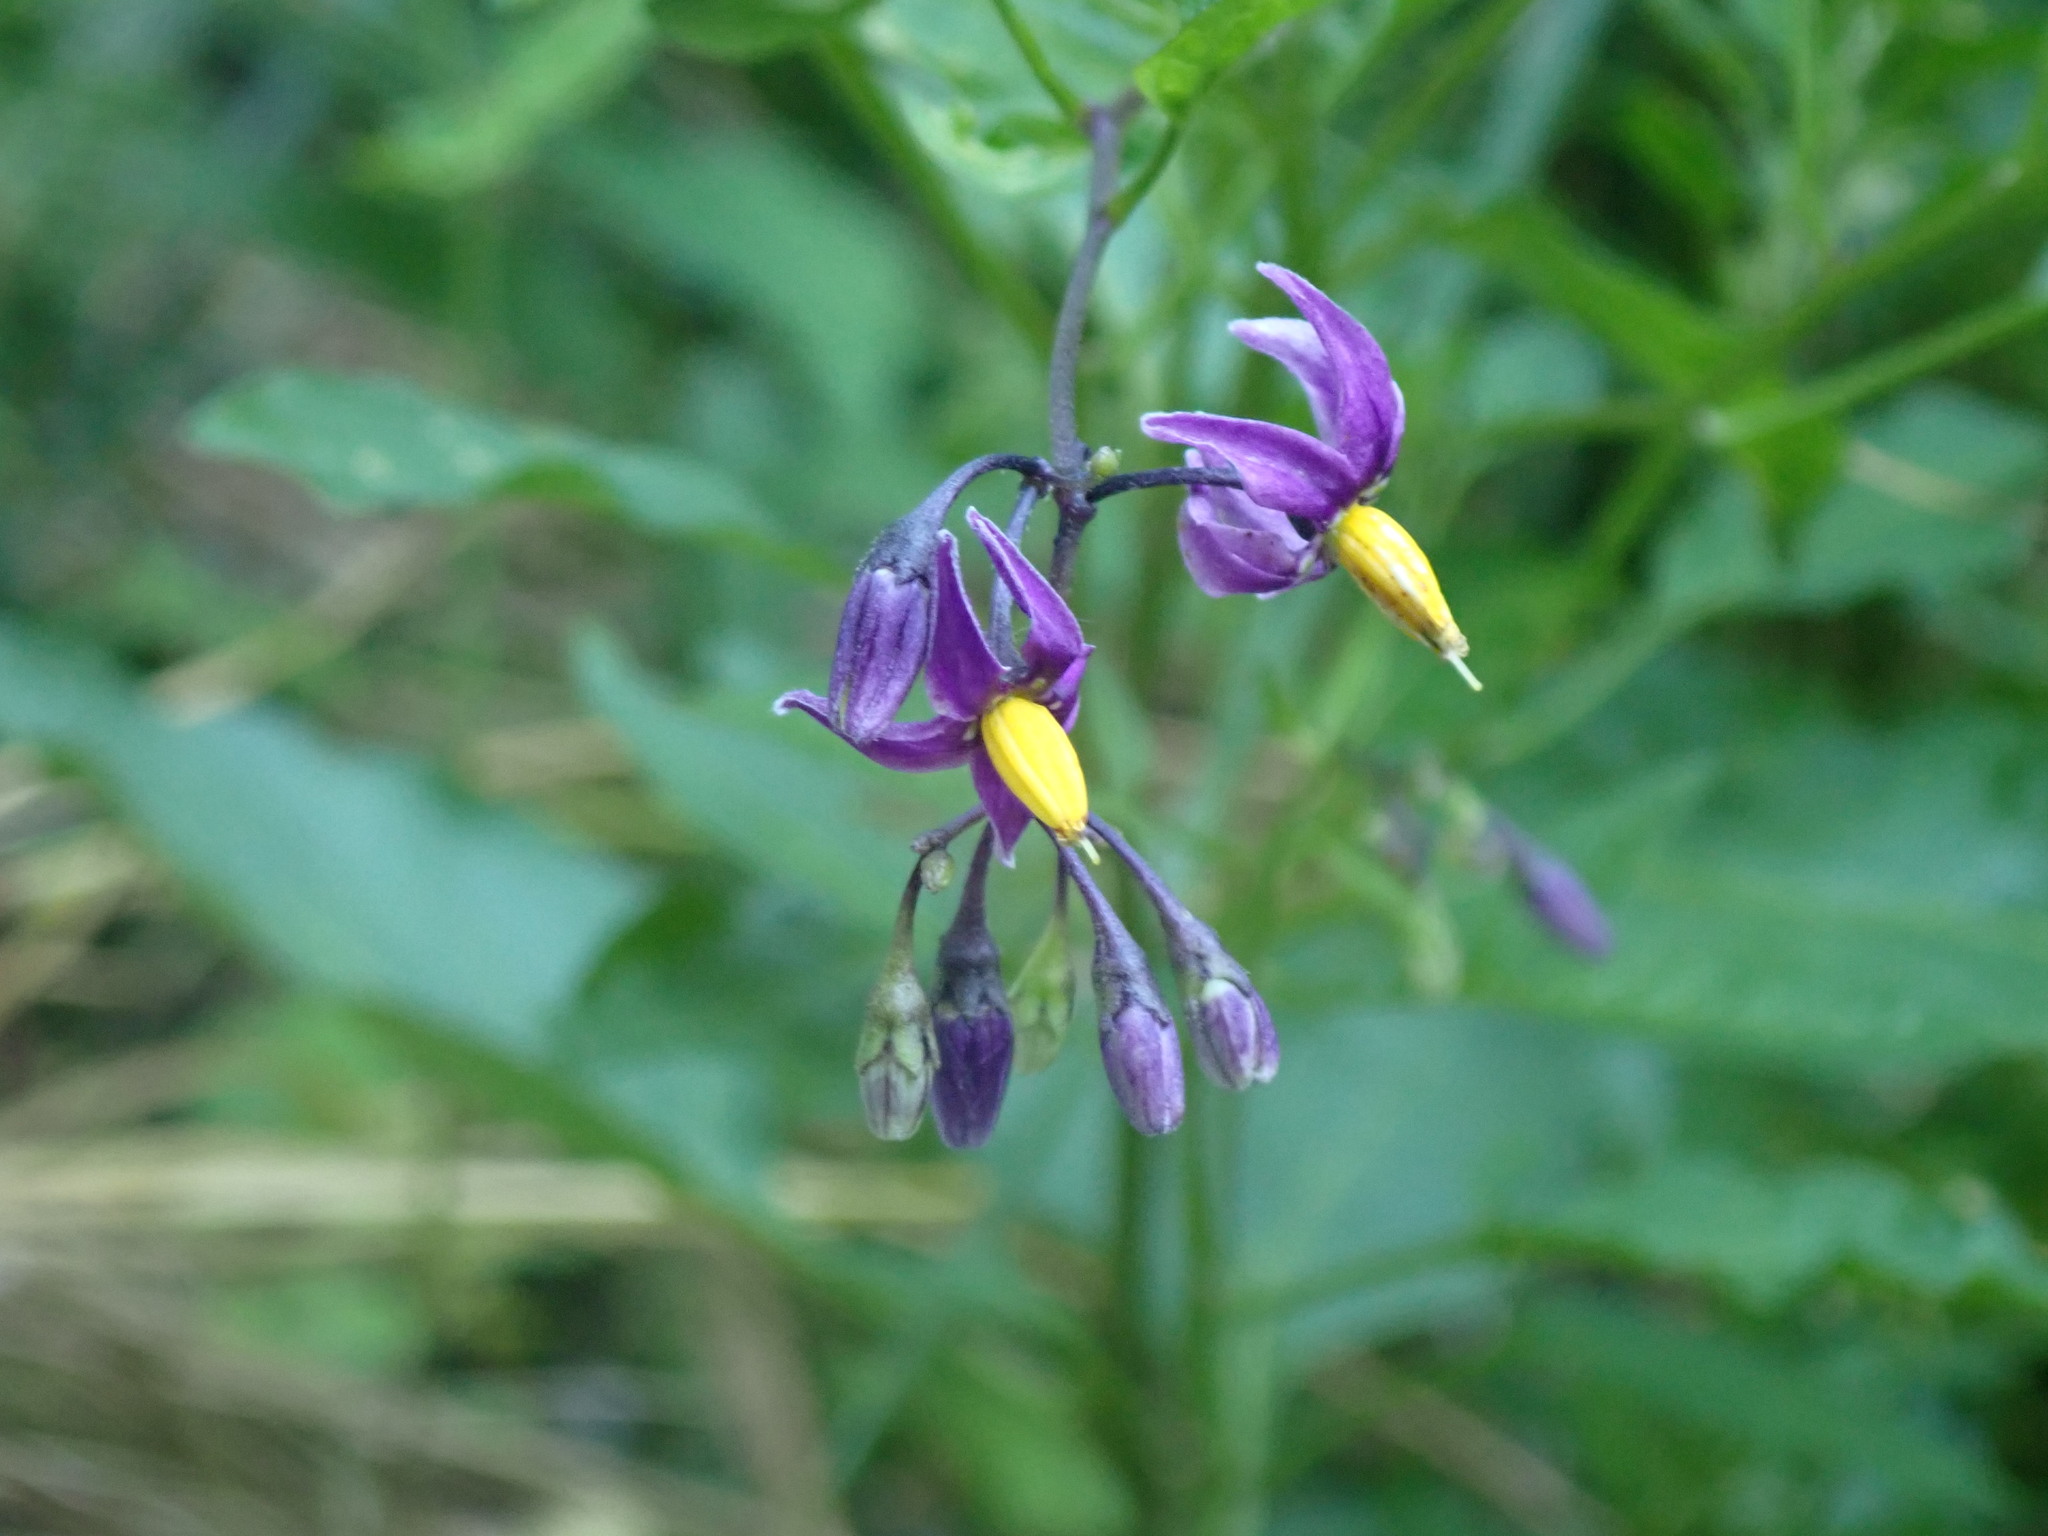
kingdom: Plantae
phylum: Tracheophyta
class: Magnoliopsida
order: Solanales
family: Solanaceae
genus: Solanum
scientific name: Solanum dulcamara
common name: Climbing nightshade
